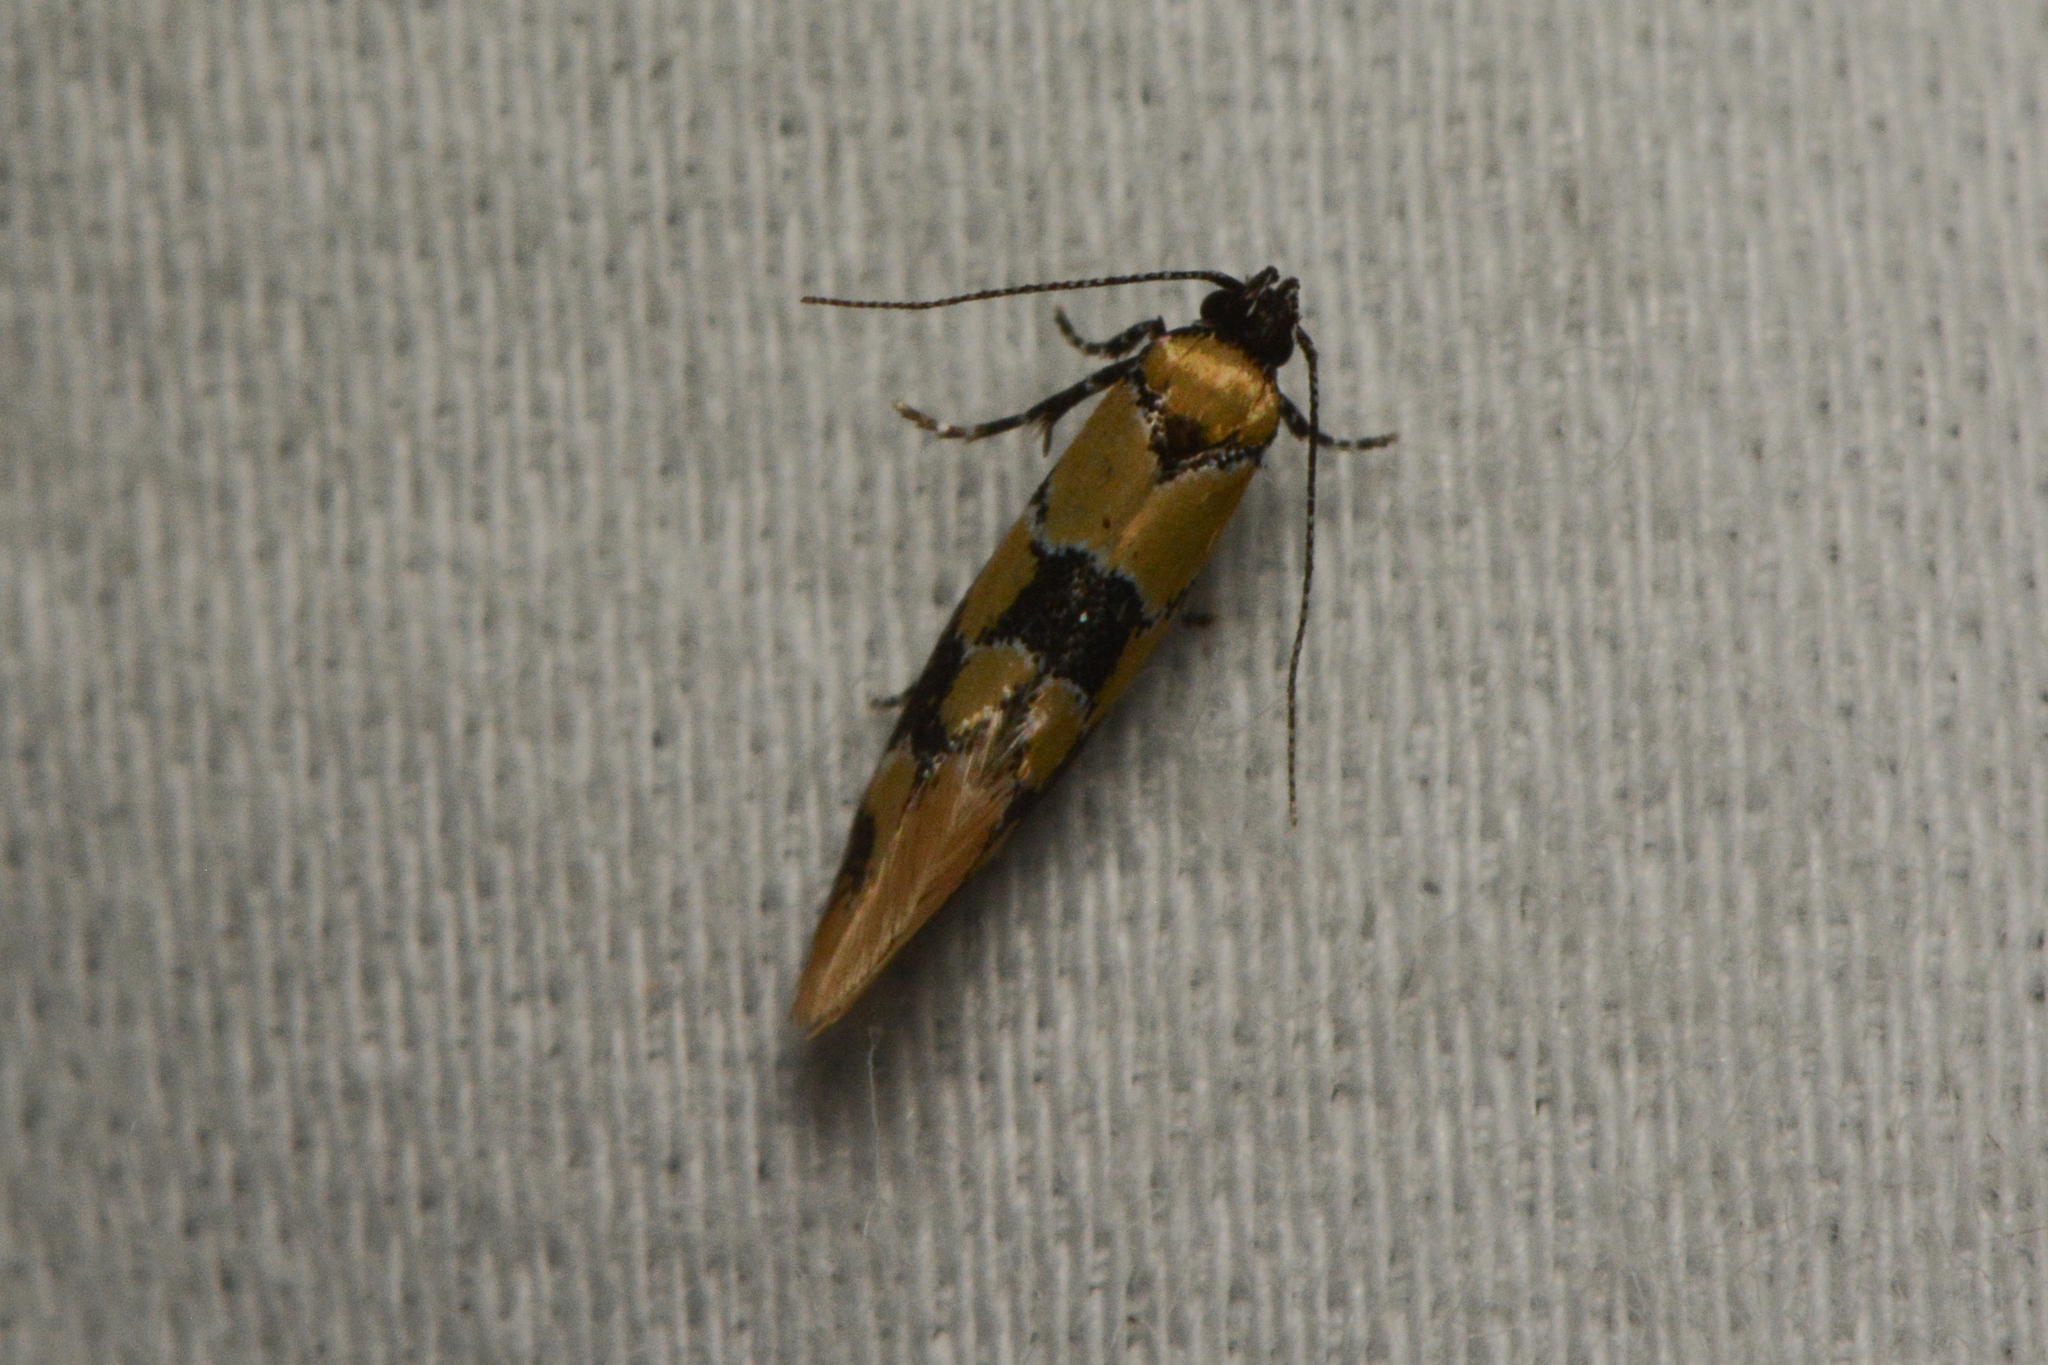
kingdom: Animalia
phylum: Arthropoda
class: Insecta
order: Lepidoptera
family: Oecophoridae
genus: Decantha
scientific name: Decantha stonda
